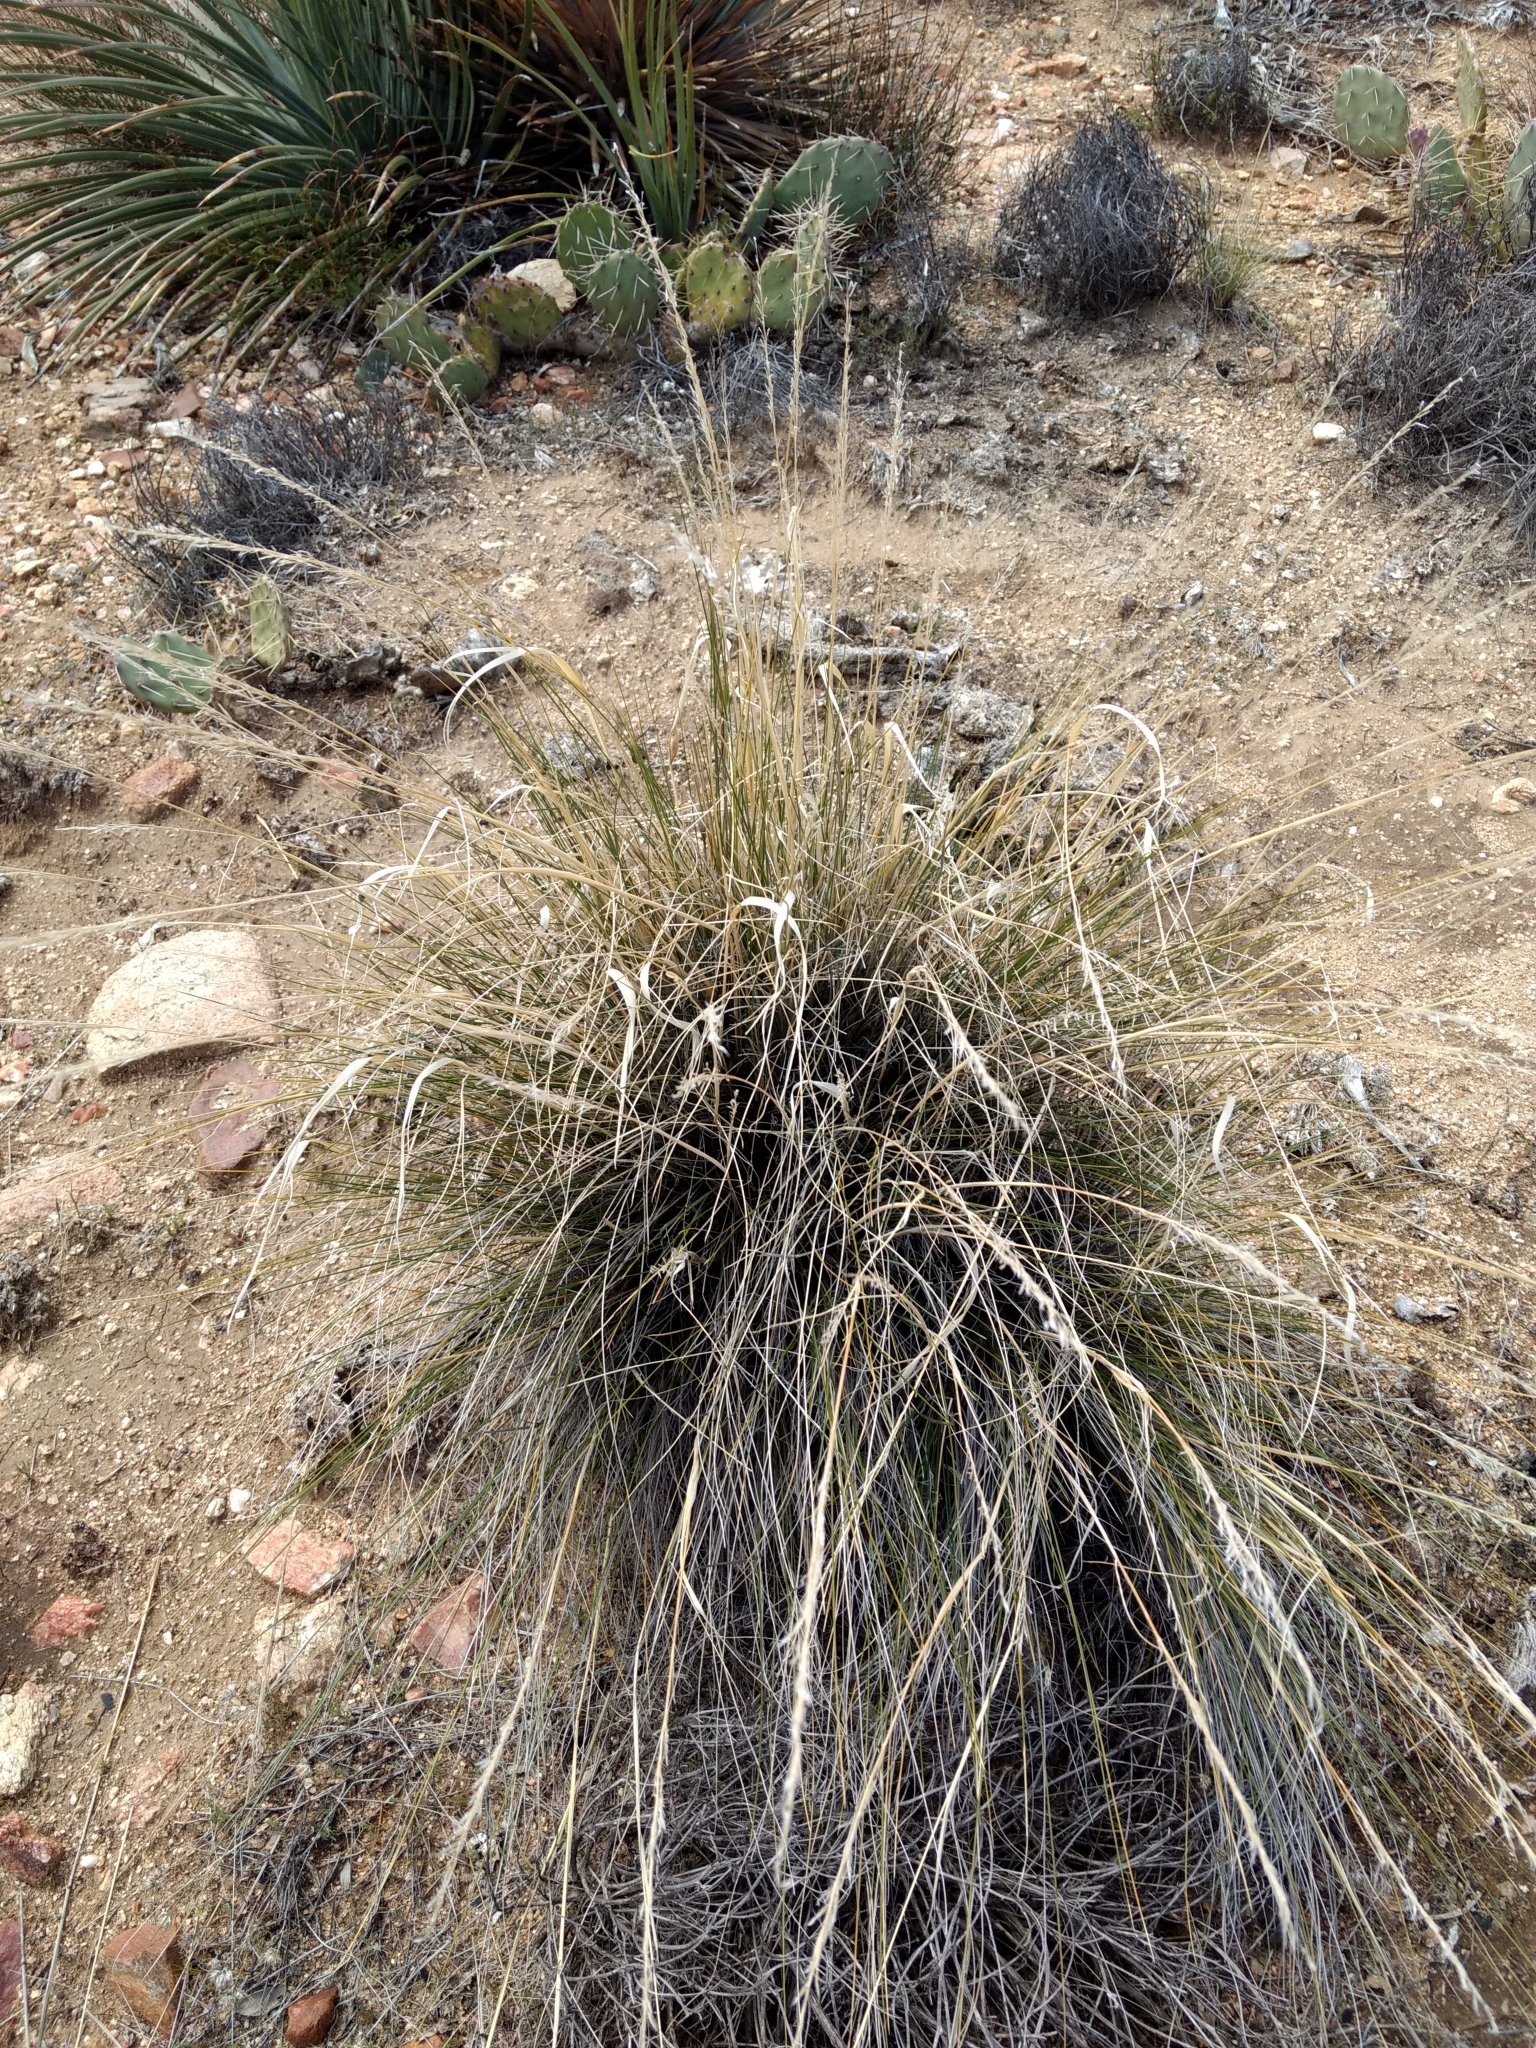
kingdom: Plantae
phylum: Tracheophyta
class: Liliopsida
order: Poales
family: Poaceae
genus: Pappostipa
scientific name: Pappostipa speciosa
